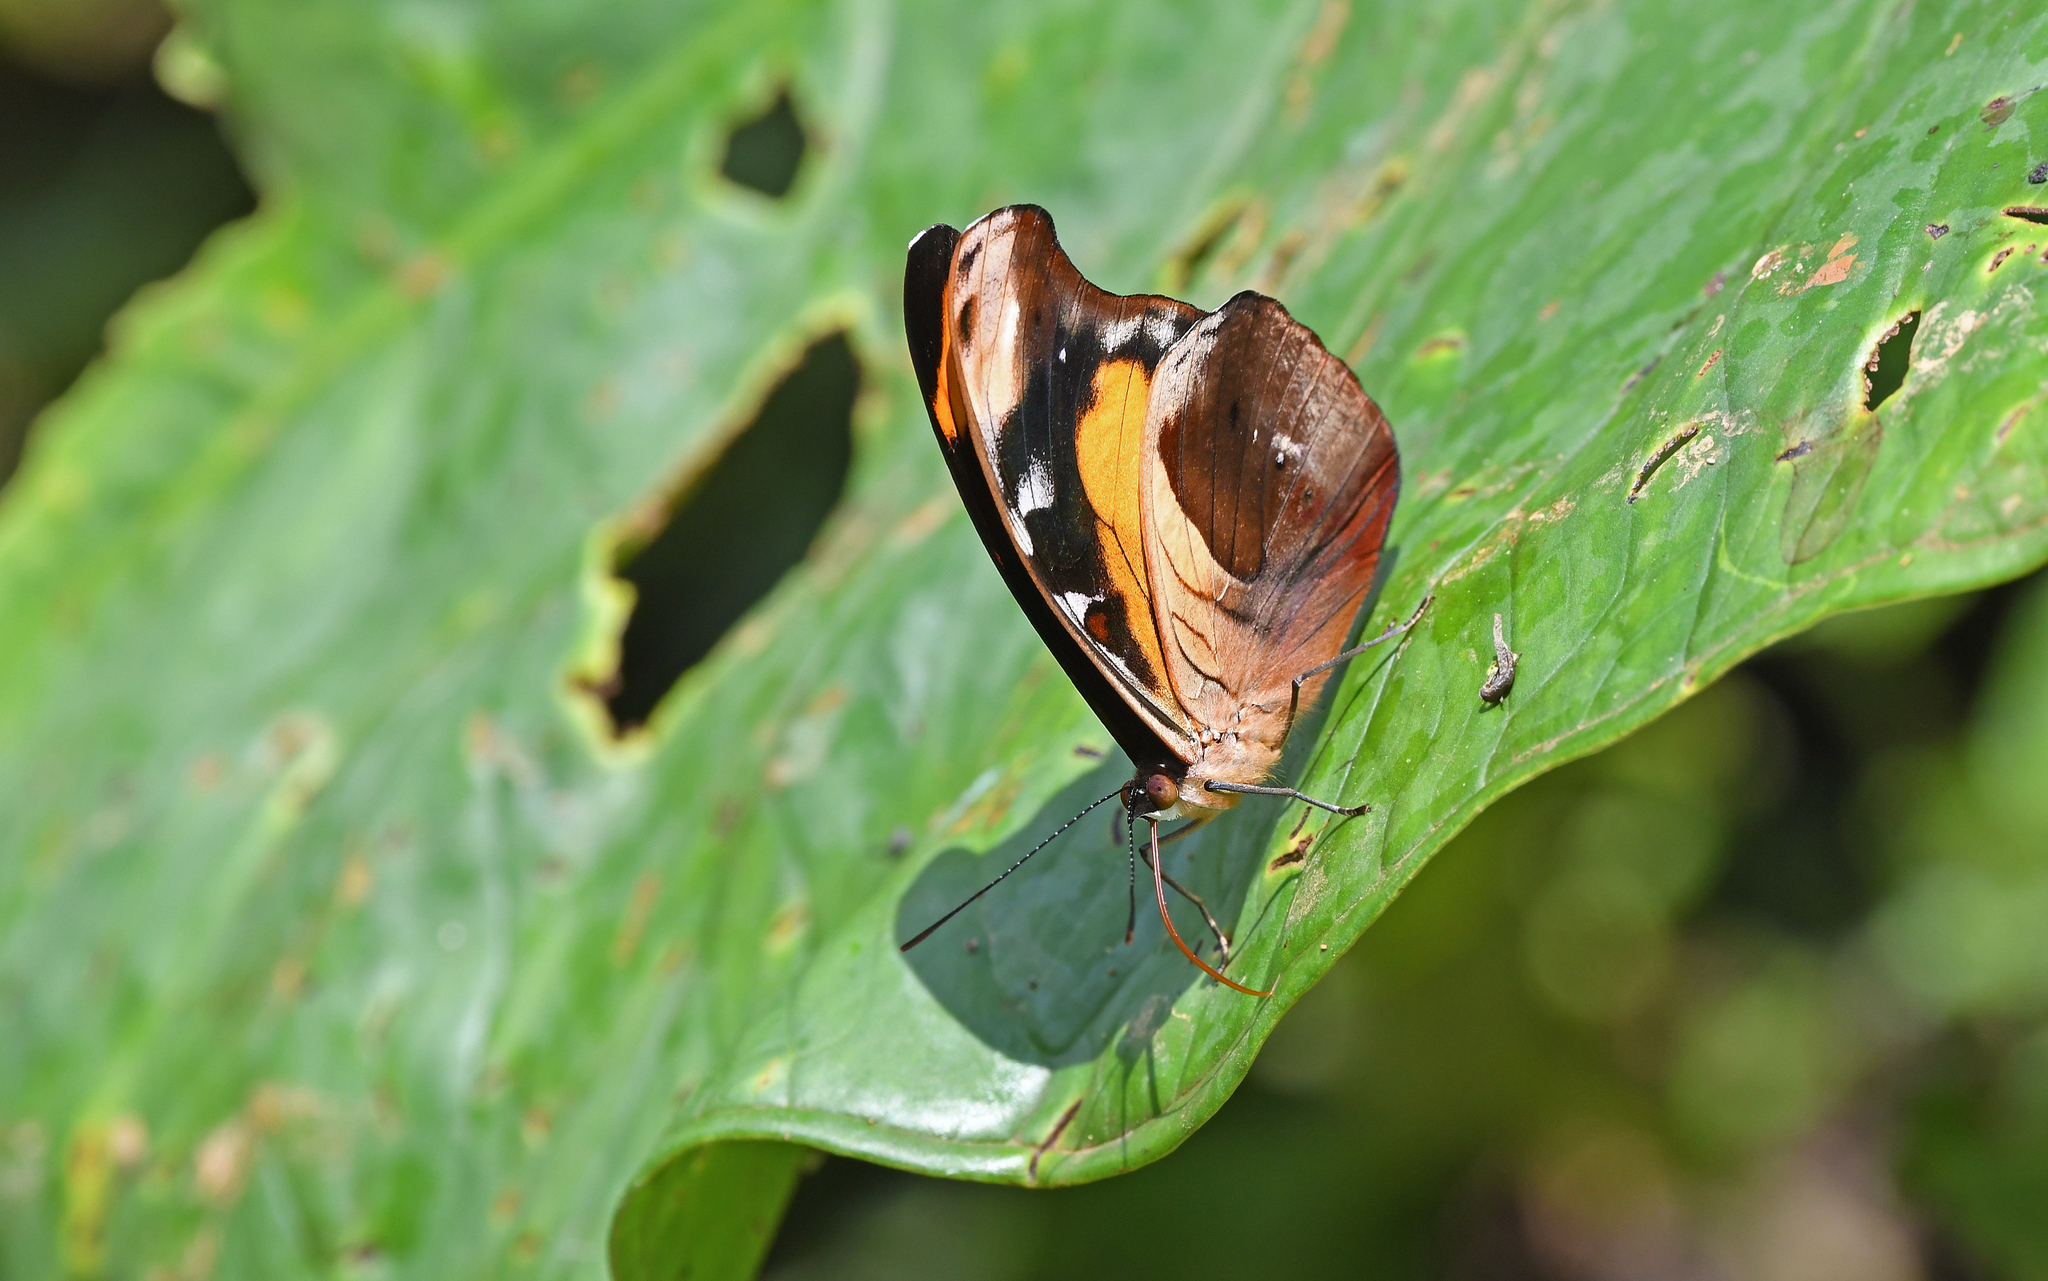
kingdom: Animalia
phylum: Arthropoda
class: Insecta
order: Lepidoptera
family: Nymphalidae
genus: Catonephele
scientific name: Catonephele chromis
